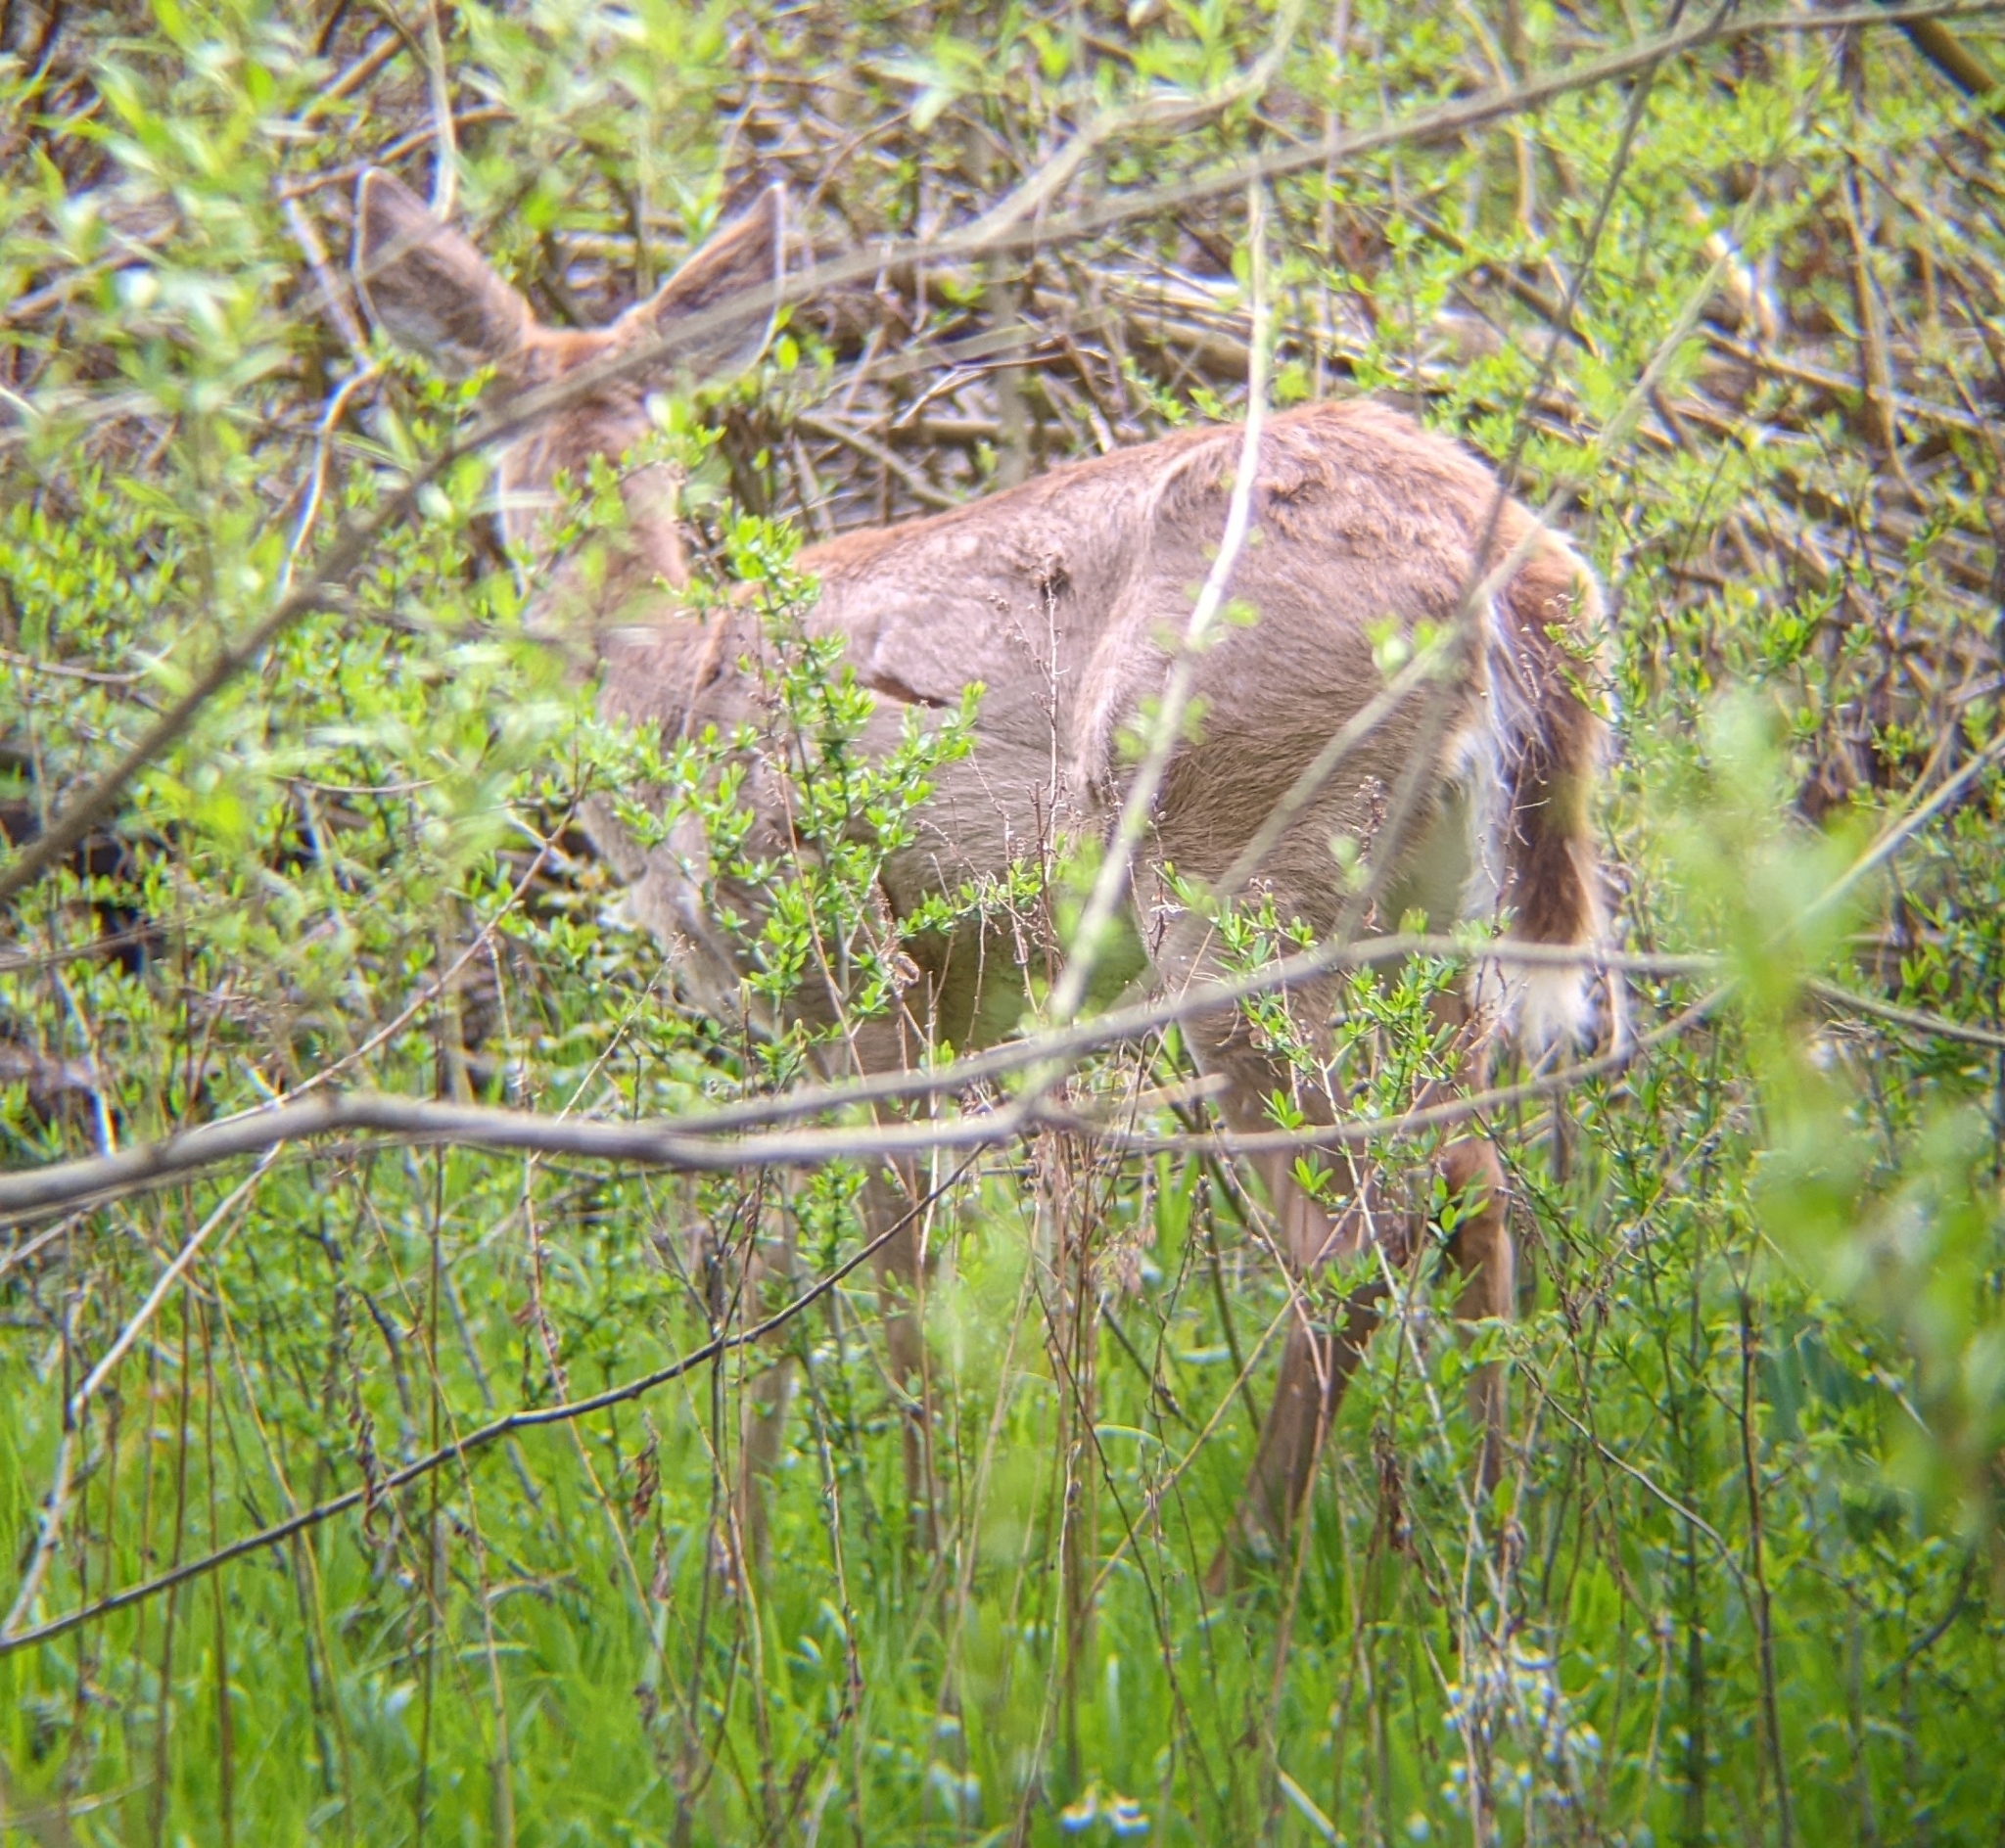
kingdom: Animalia
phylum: Chordata
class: Mammalia
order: Artiodactyla
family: Cervidae
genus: Odocoileus
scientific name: Odocoileus virginianus
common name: White-tailed deer
